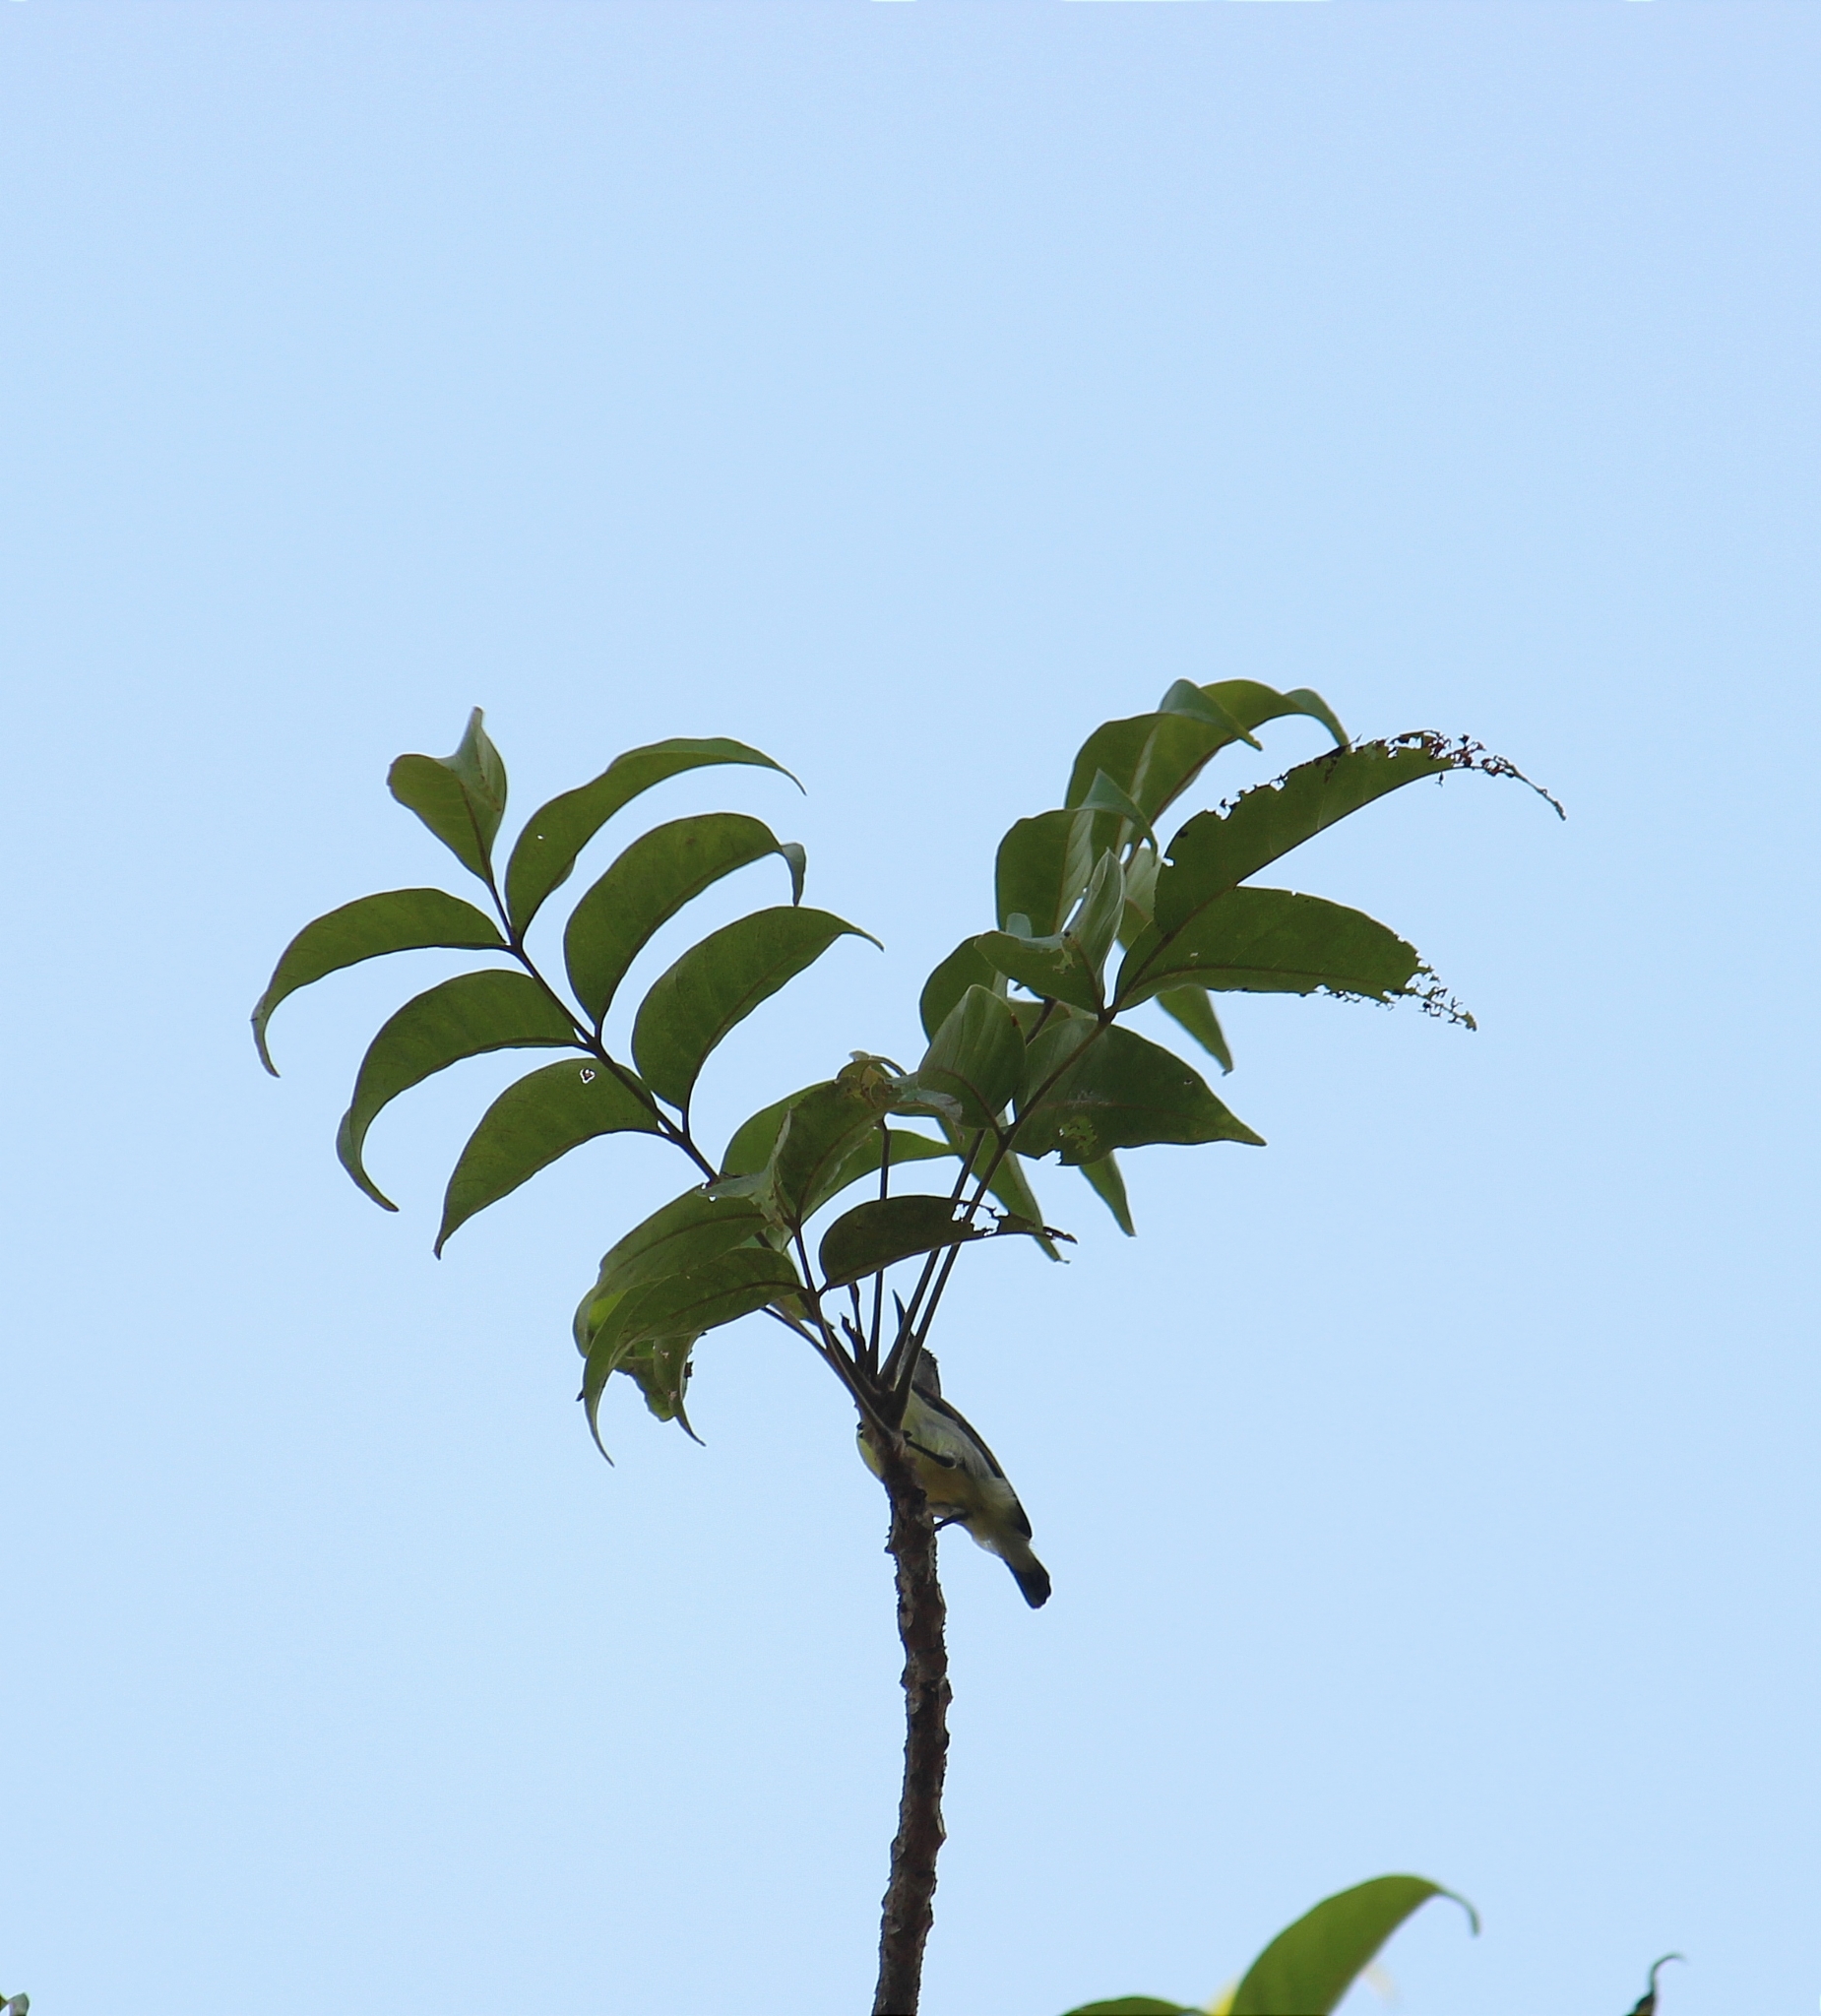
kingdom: Animalia
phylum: Chordata
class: Aves
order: Passeriformes
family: Nectariniidae
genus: Leptocoma
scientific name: Leptocoma zeylonica
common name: Purple-rumped sunbird
